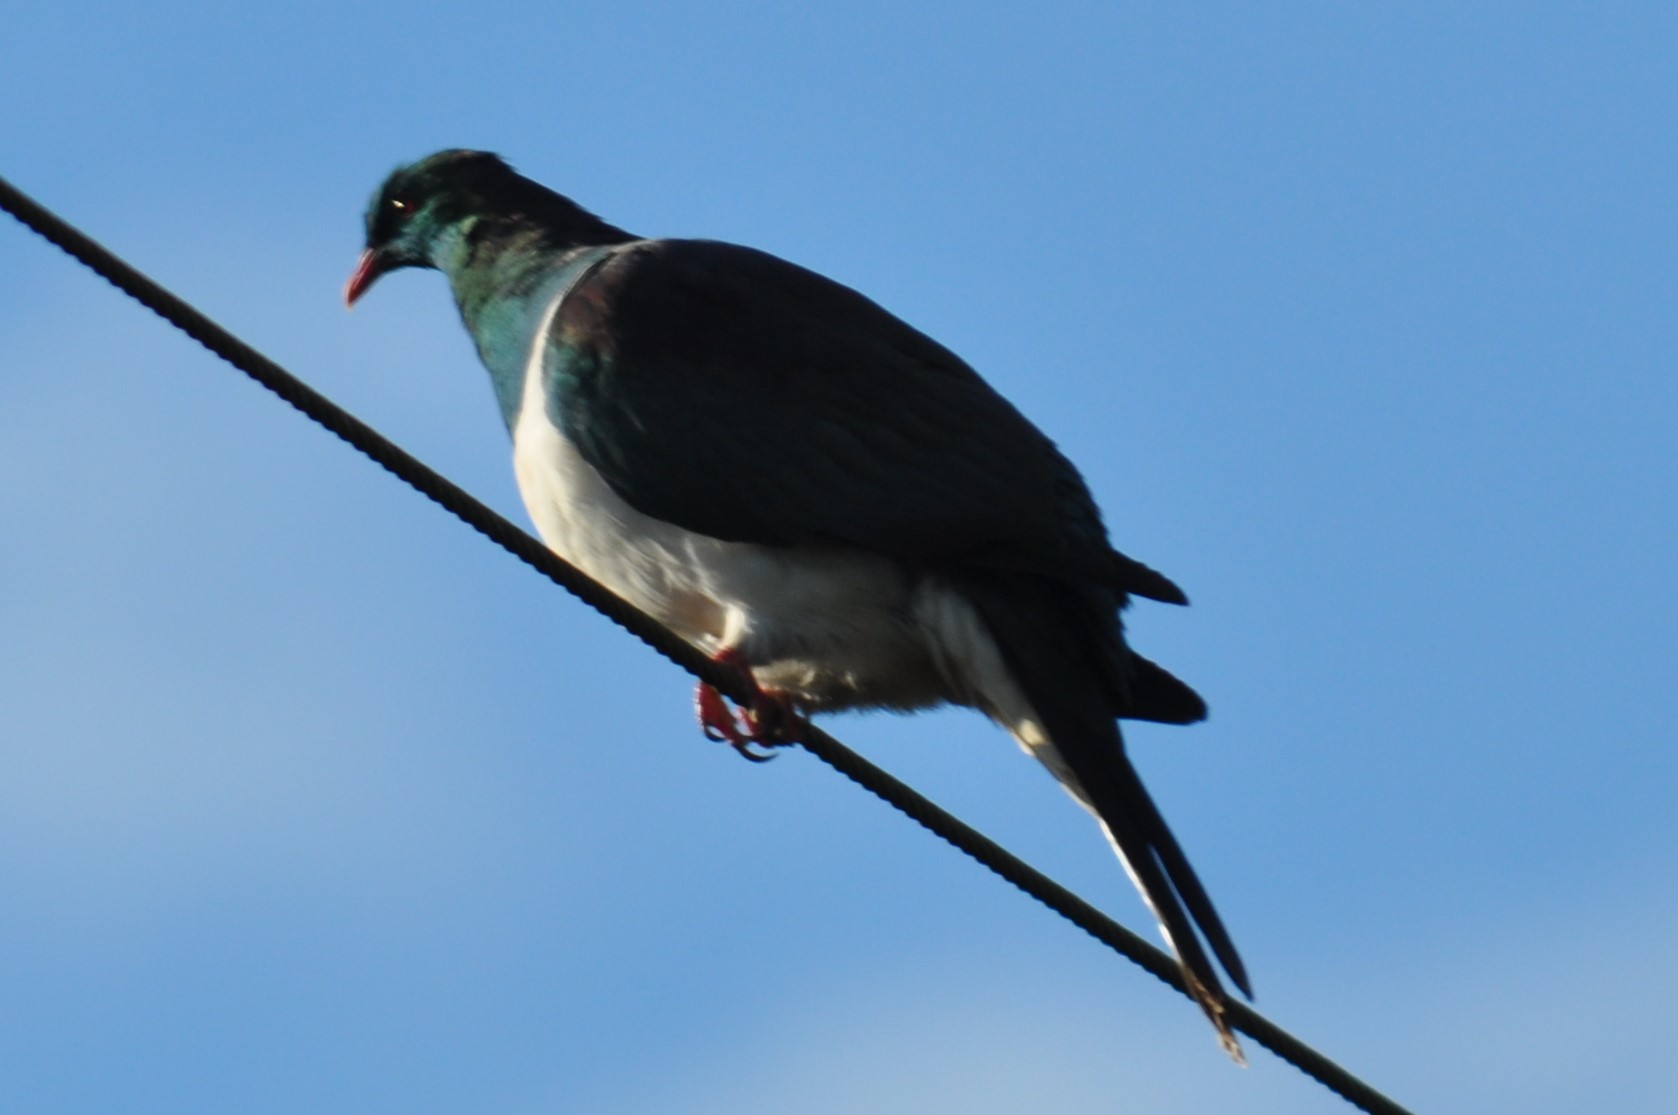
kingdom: Animalia
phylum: Chordata
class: Aves
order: Columbiformes
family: Columbidae
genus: Hemiphaga
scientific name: Hemiphaga novaeseelandiae
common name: New zealand pigeon
